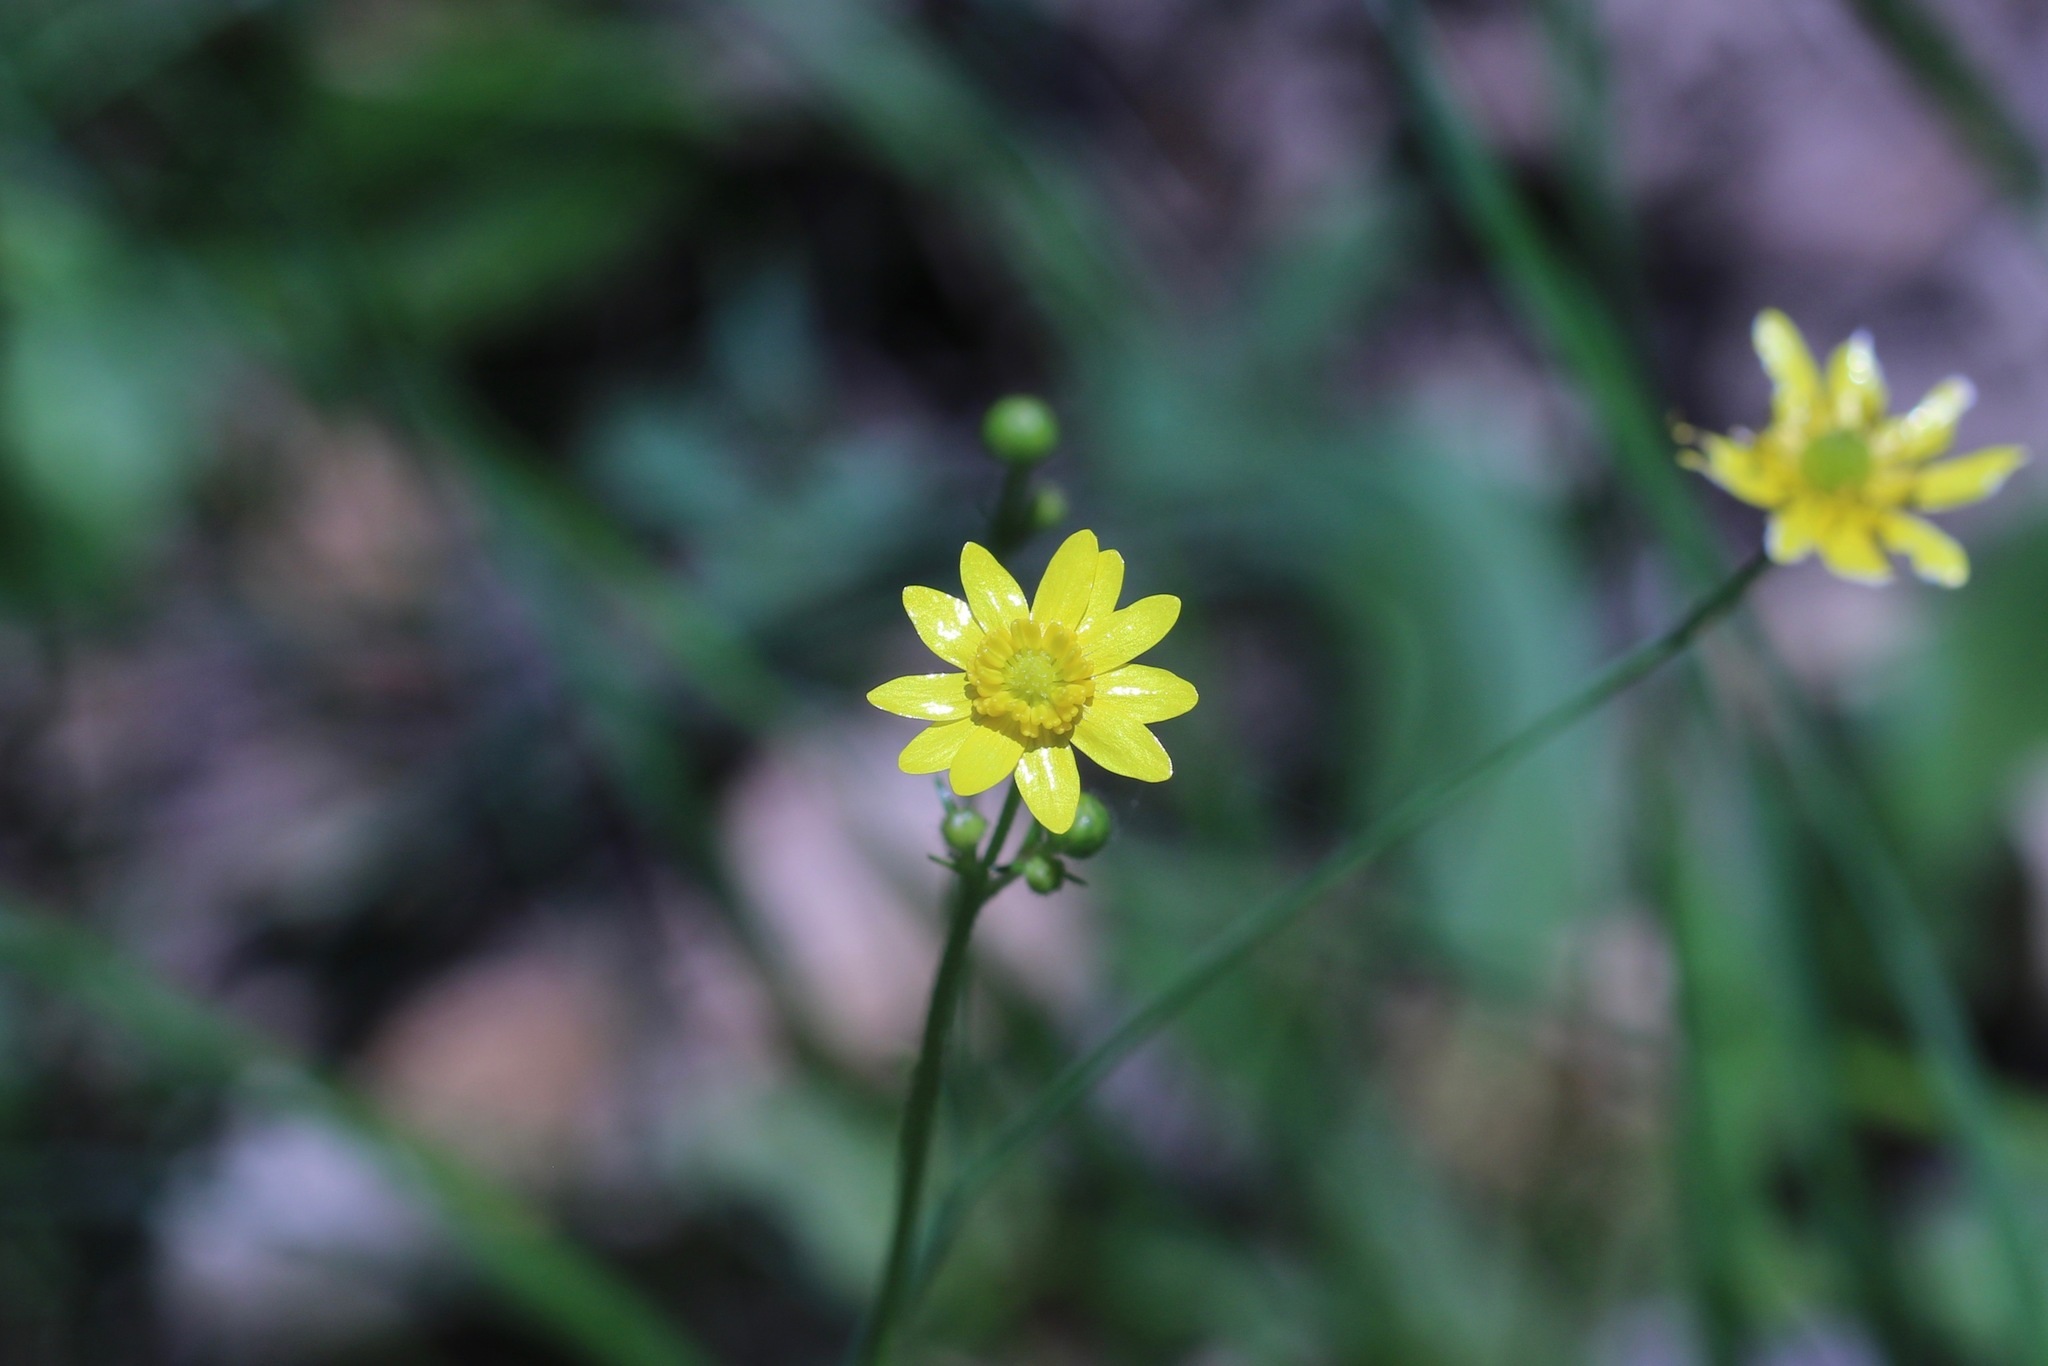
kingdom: Plantae
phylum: Tracheophyta
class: Magnoliopsida
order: Ranunculales
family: Ranunculaceae
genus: Ranunculus
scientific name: Ranunculus californicus
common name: California buttercup
